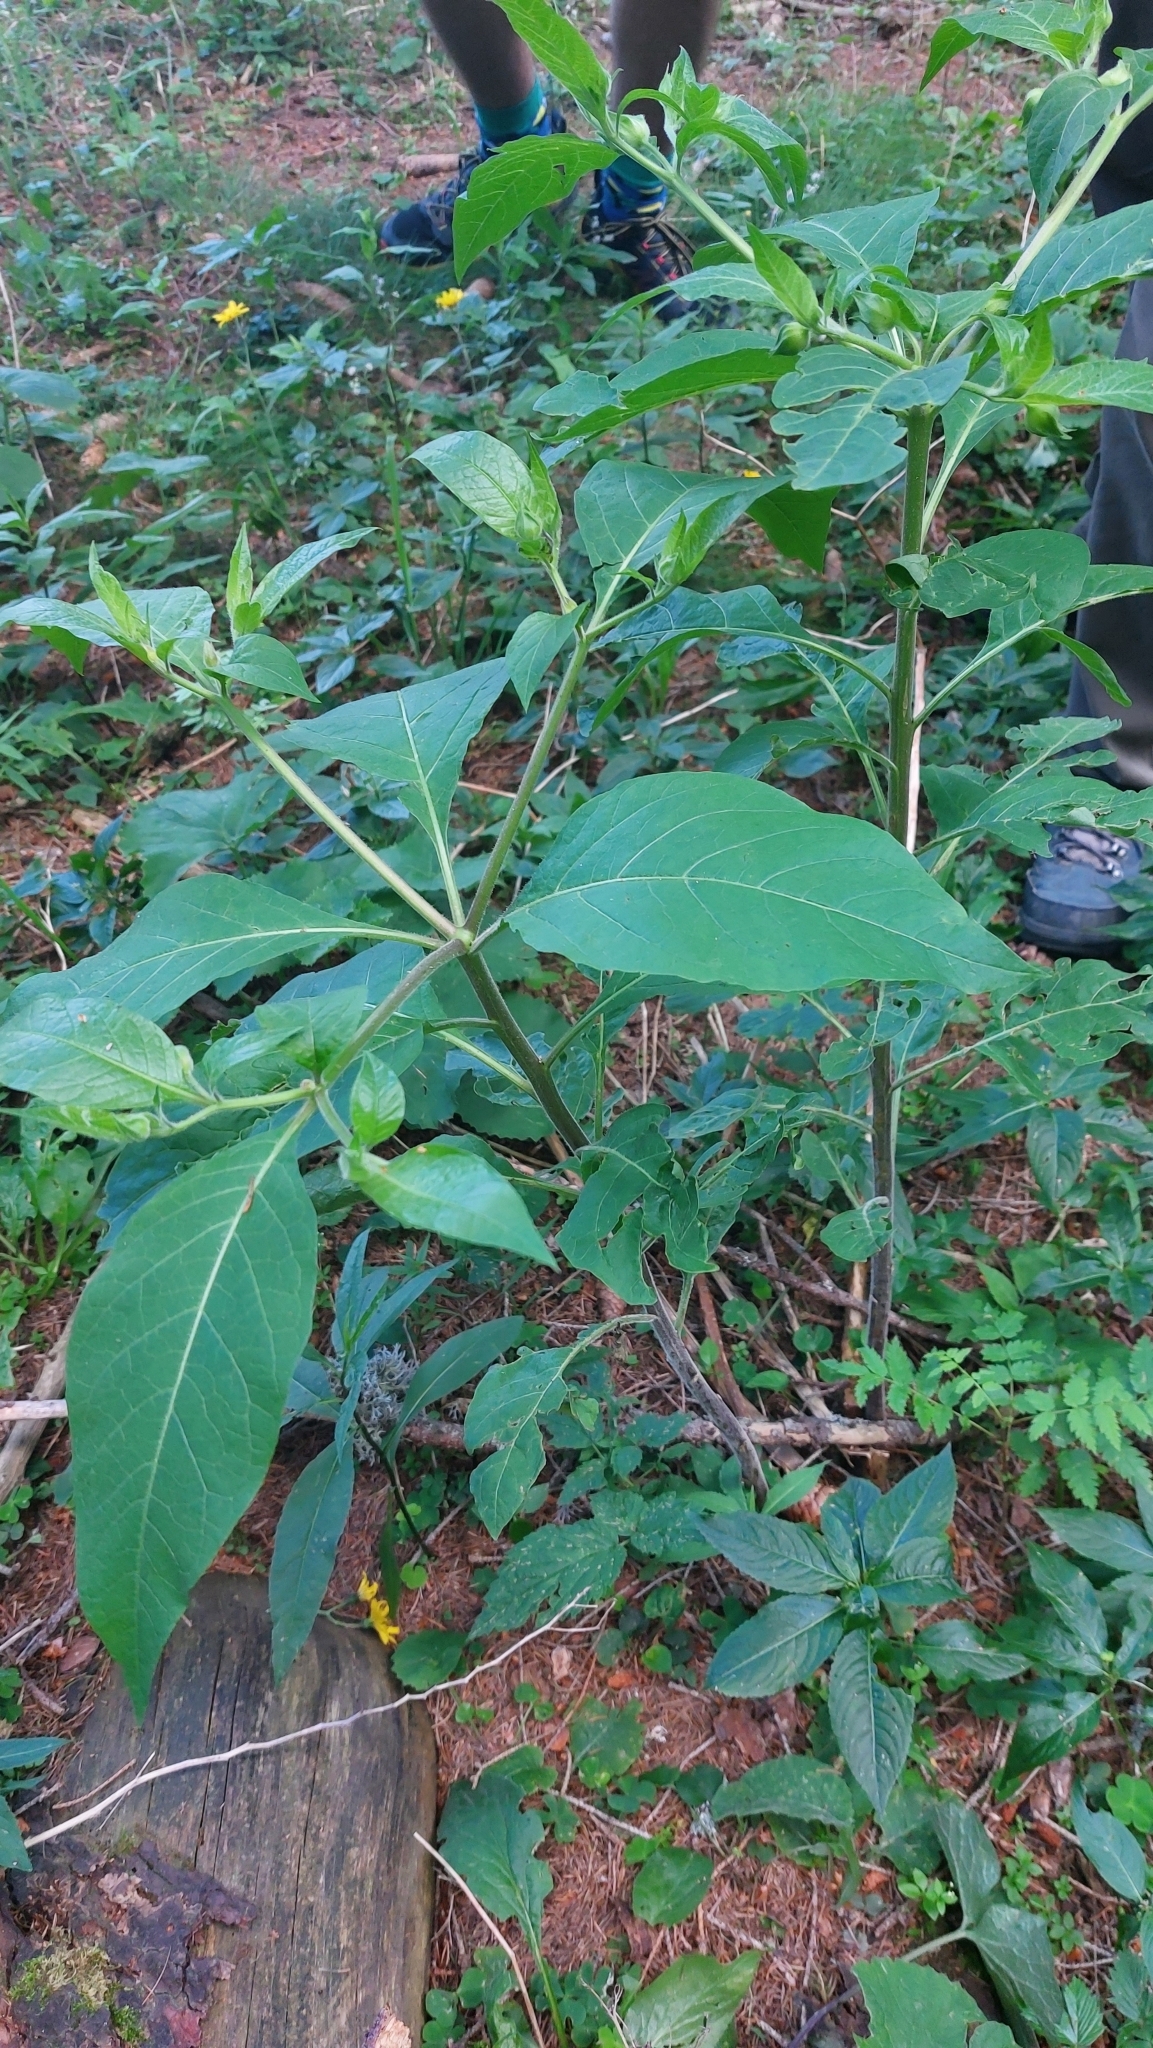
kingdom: Plantae
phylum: Tracheophyta
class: Magnoliopsida
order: Solanales
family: Solanaceae
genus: Atropa
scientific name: Atropa belladonna
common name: Deadly nightshade
